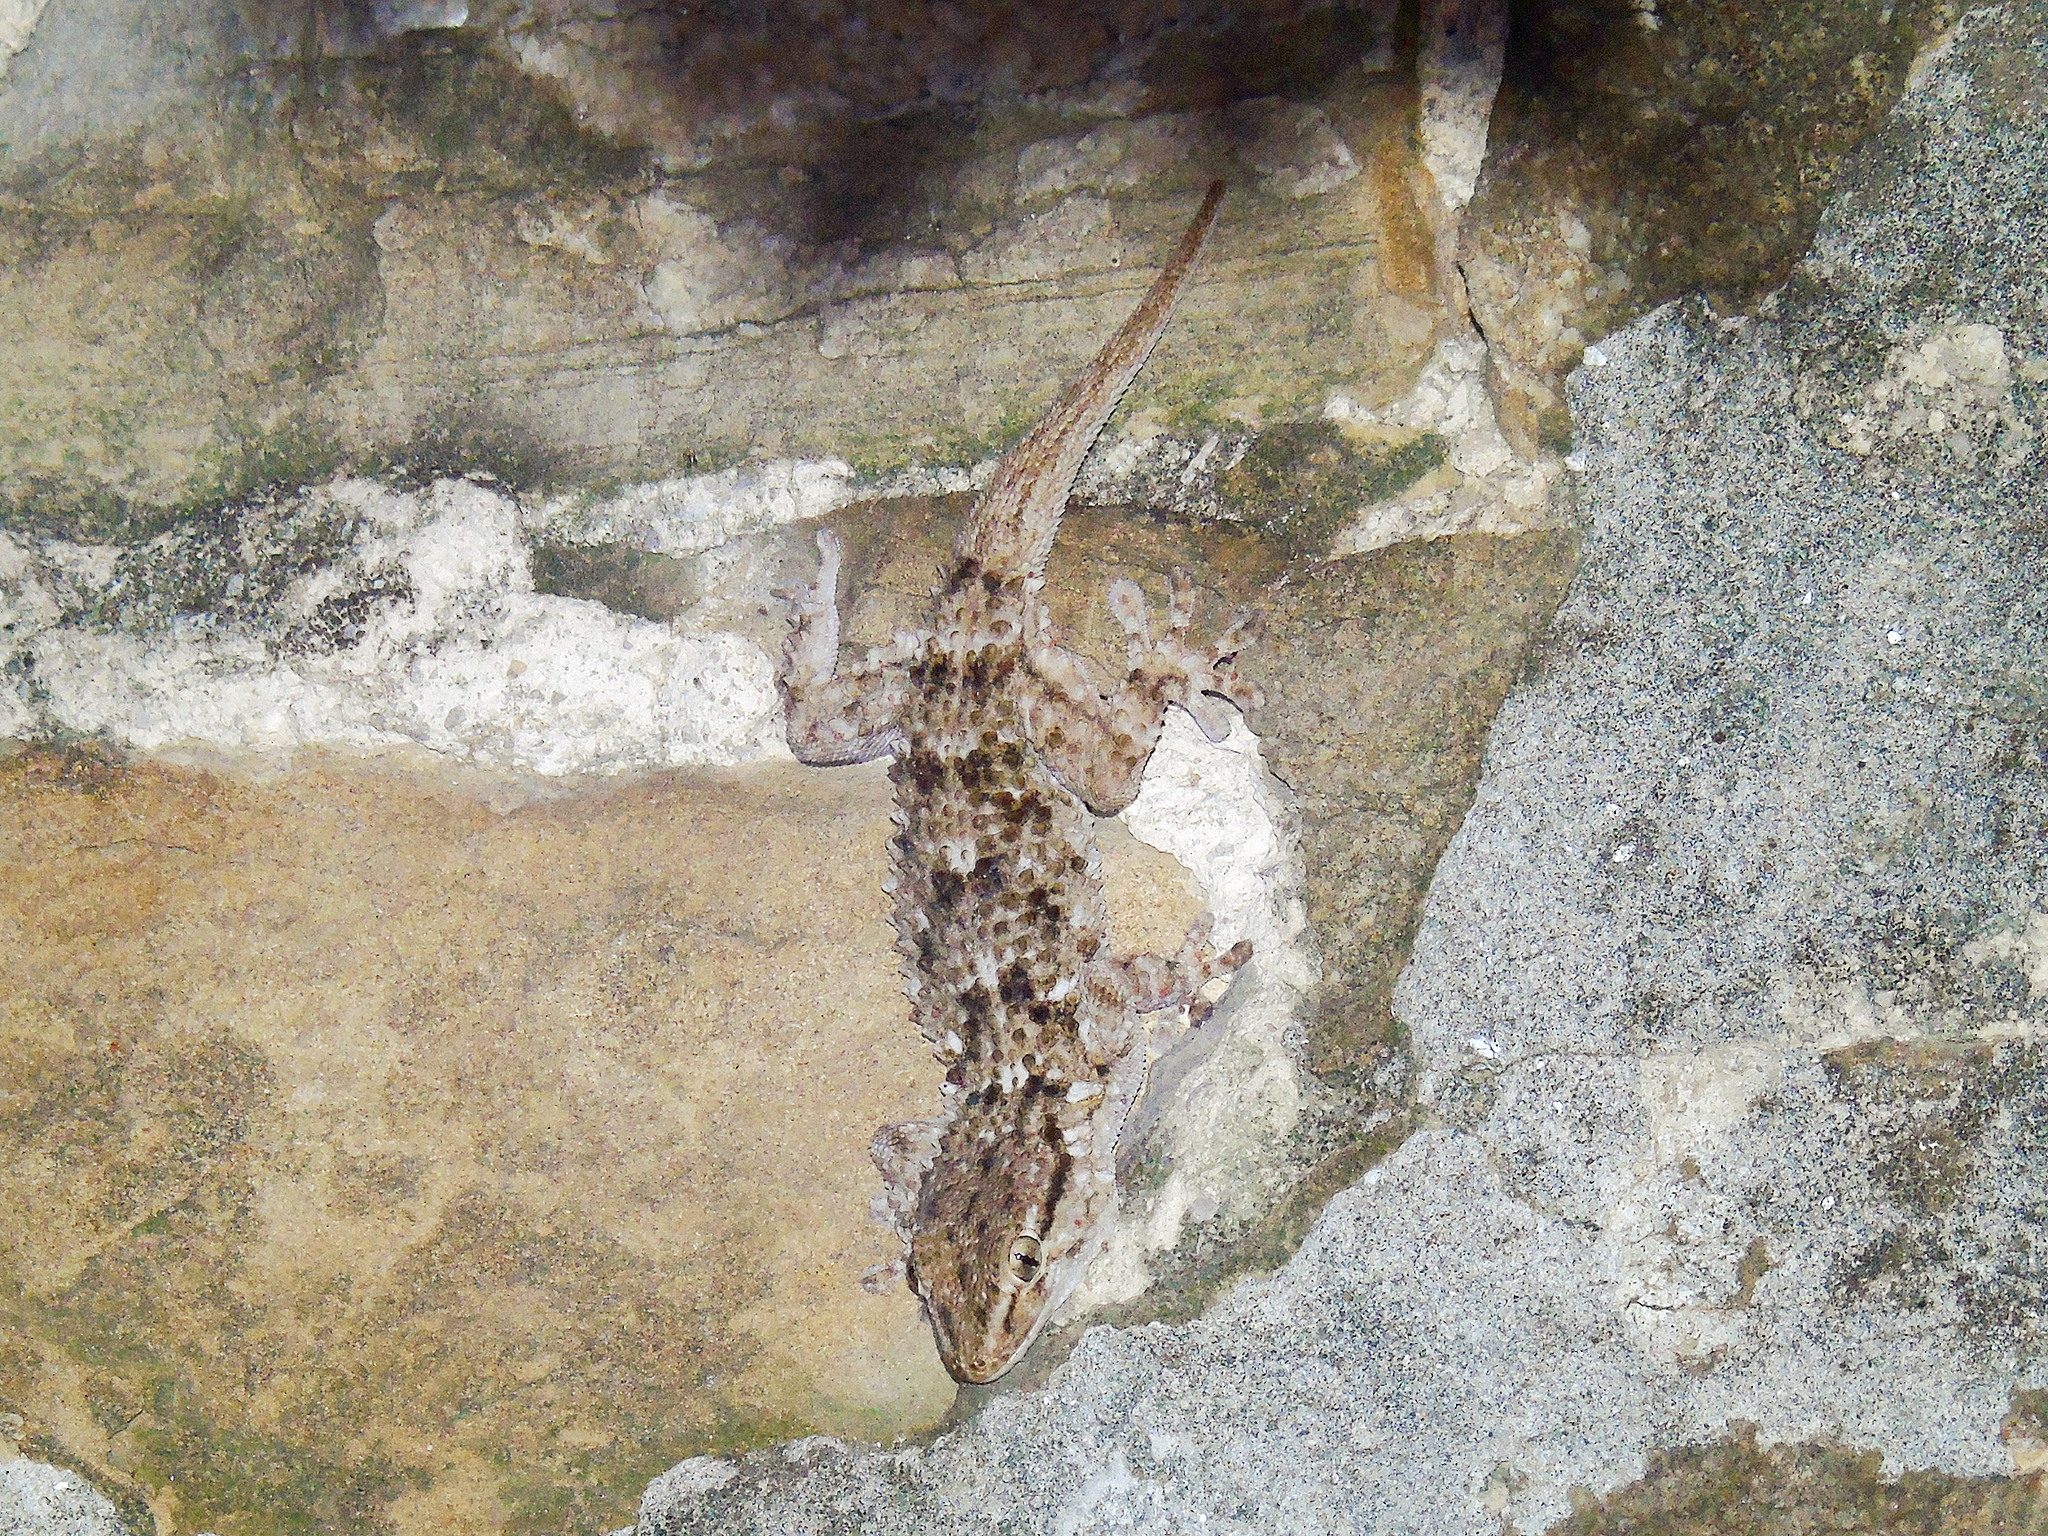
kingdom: Animalia
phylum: Chordata
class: Squamata
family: Phyllodactylidae
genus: Tarentola
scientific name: Tarentola mauritanica
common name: Moorish gecko
